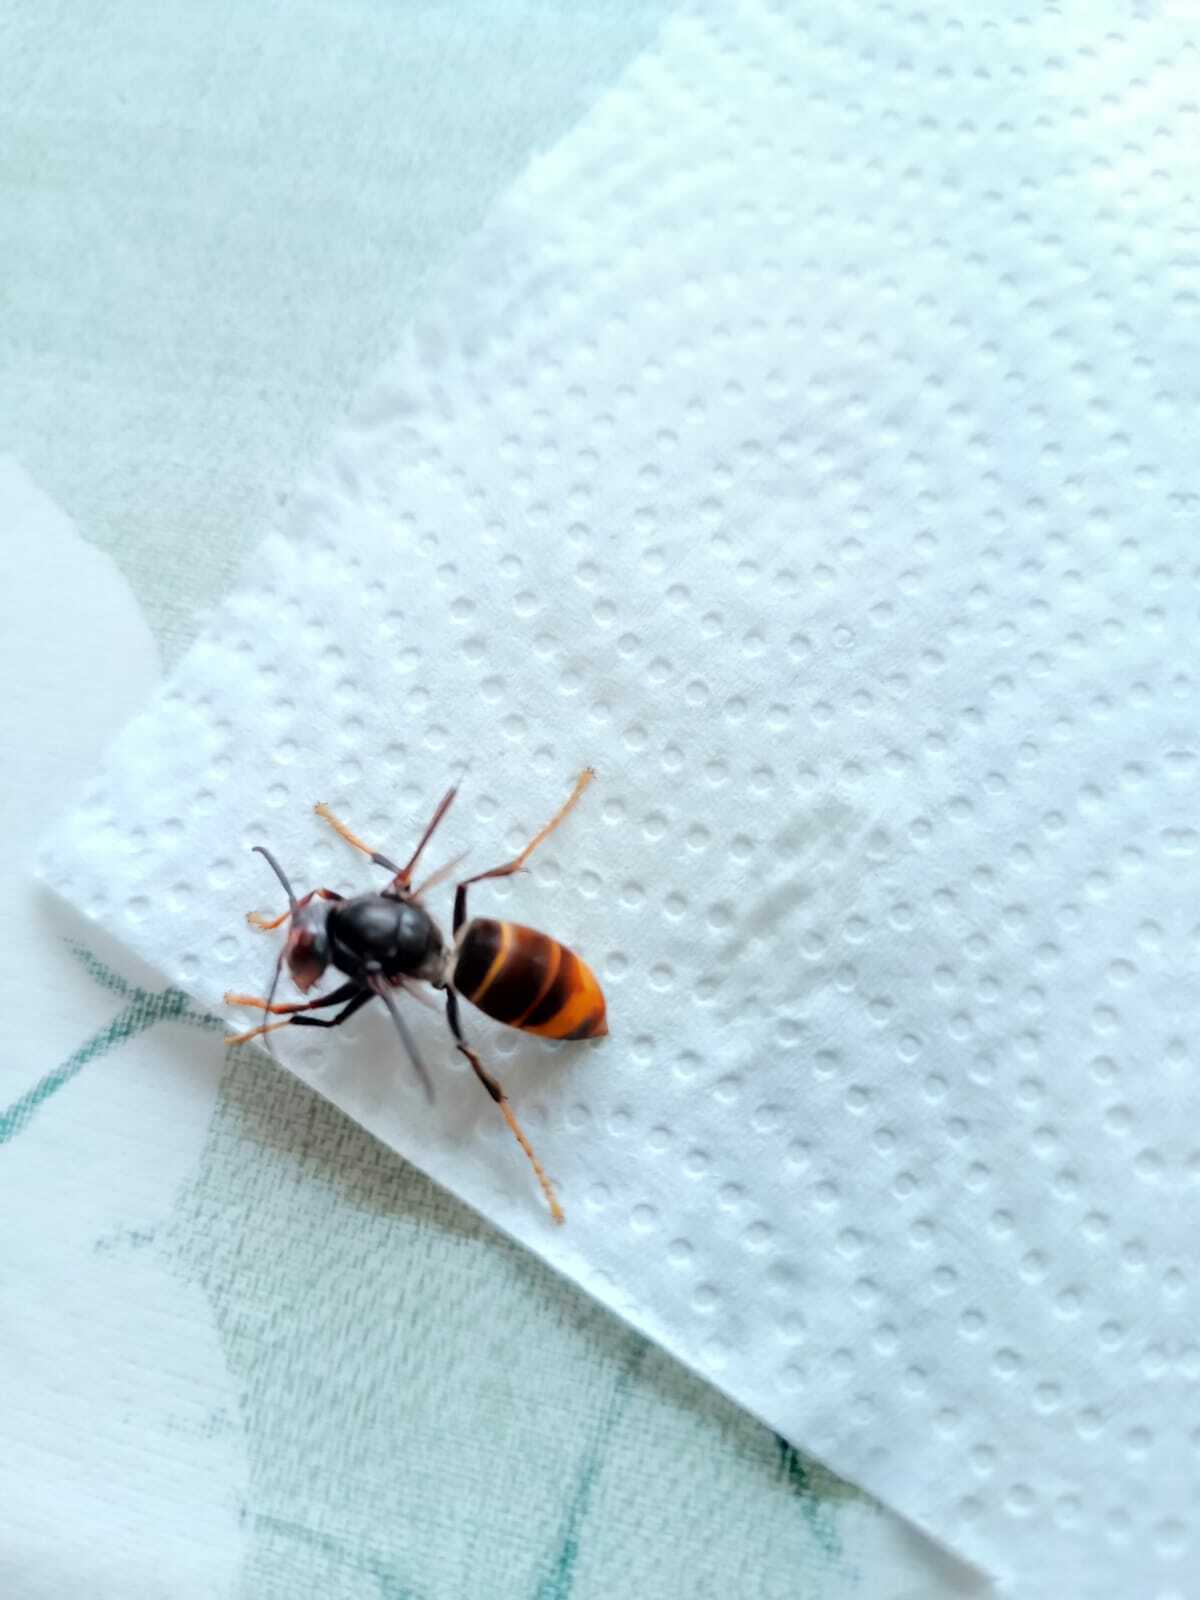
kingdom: Animalia
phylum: Arthropoda
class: Insecta
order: Hymenoptera
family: Vespidae
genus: Vespa
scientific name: Vespa velutina
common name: Asian hornet
